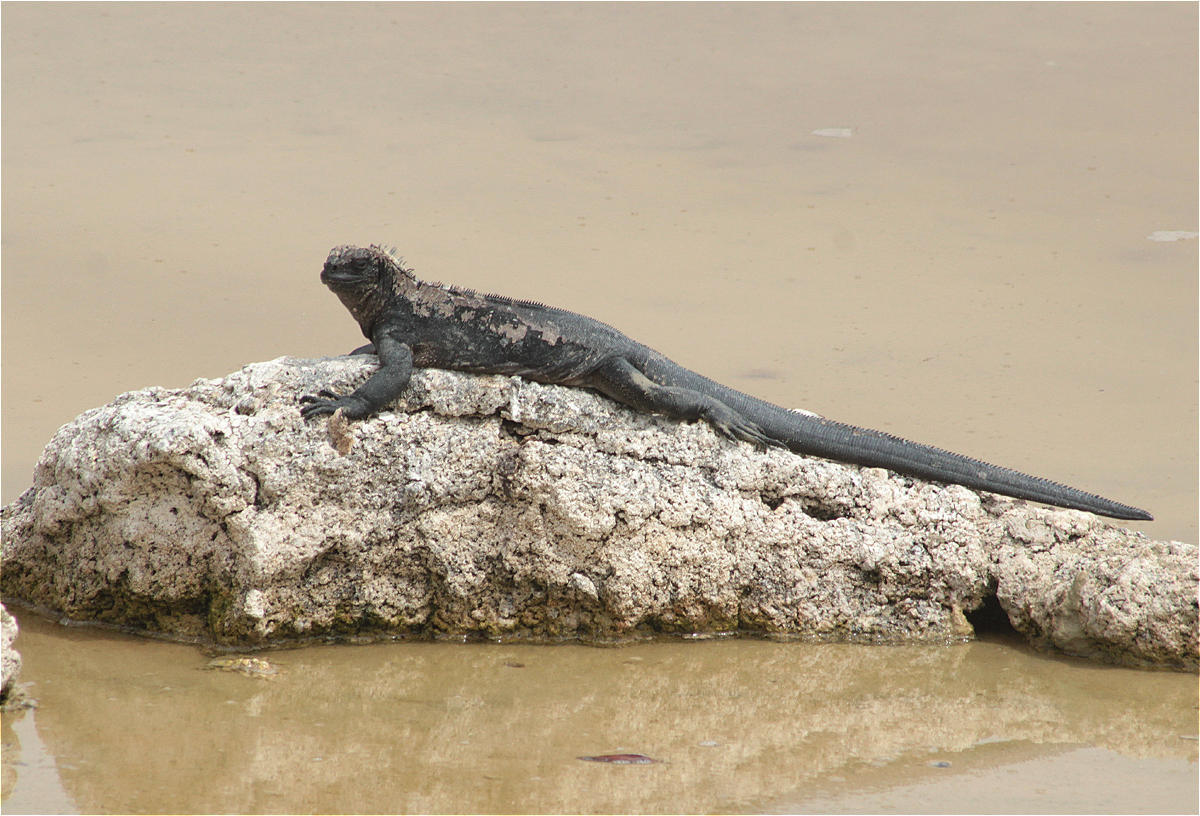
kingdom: Animalia
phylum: Chordata
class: Squamata
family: Iguanidae
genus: Amblyrhynchus
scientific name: Amblyrhynchus cristatus
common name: Marine iguana
